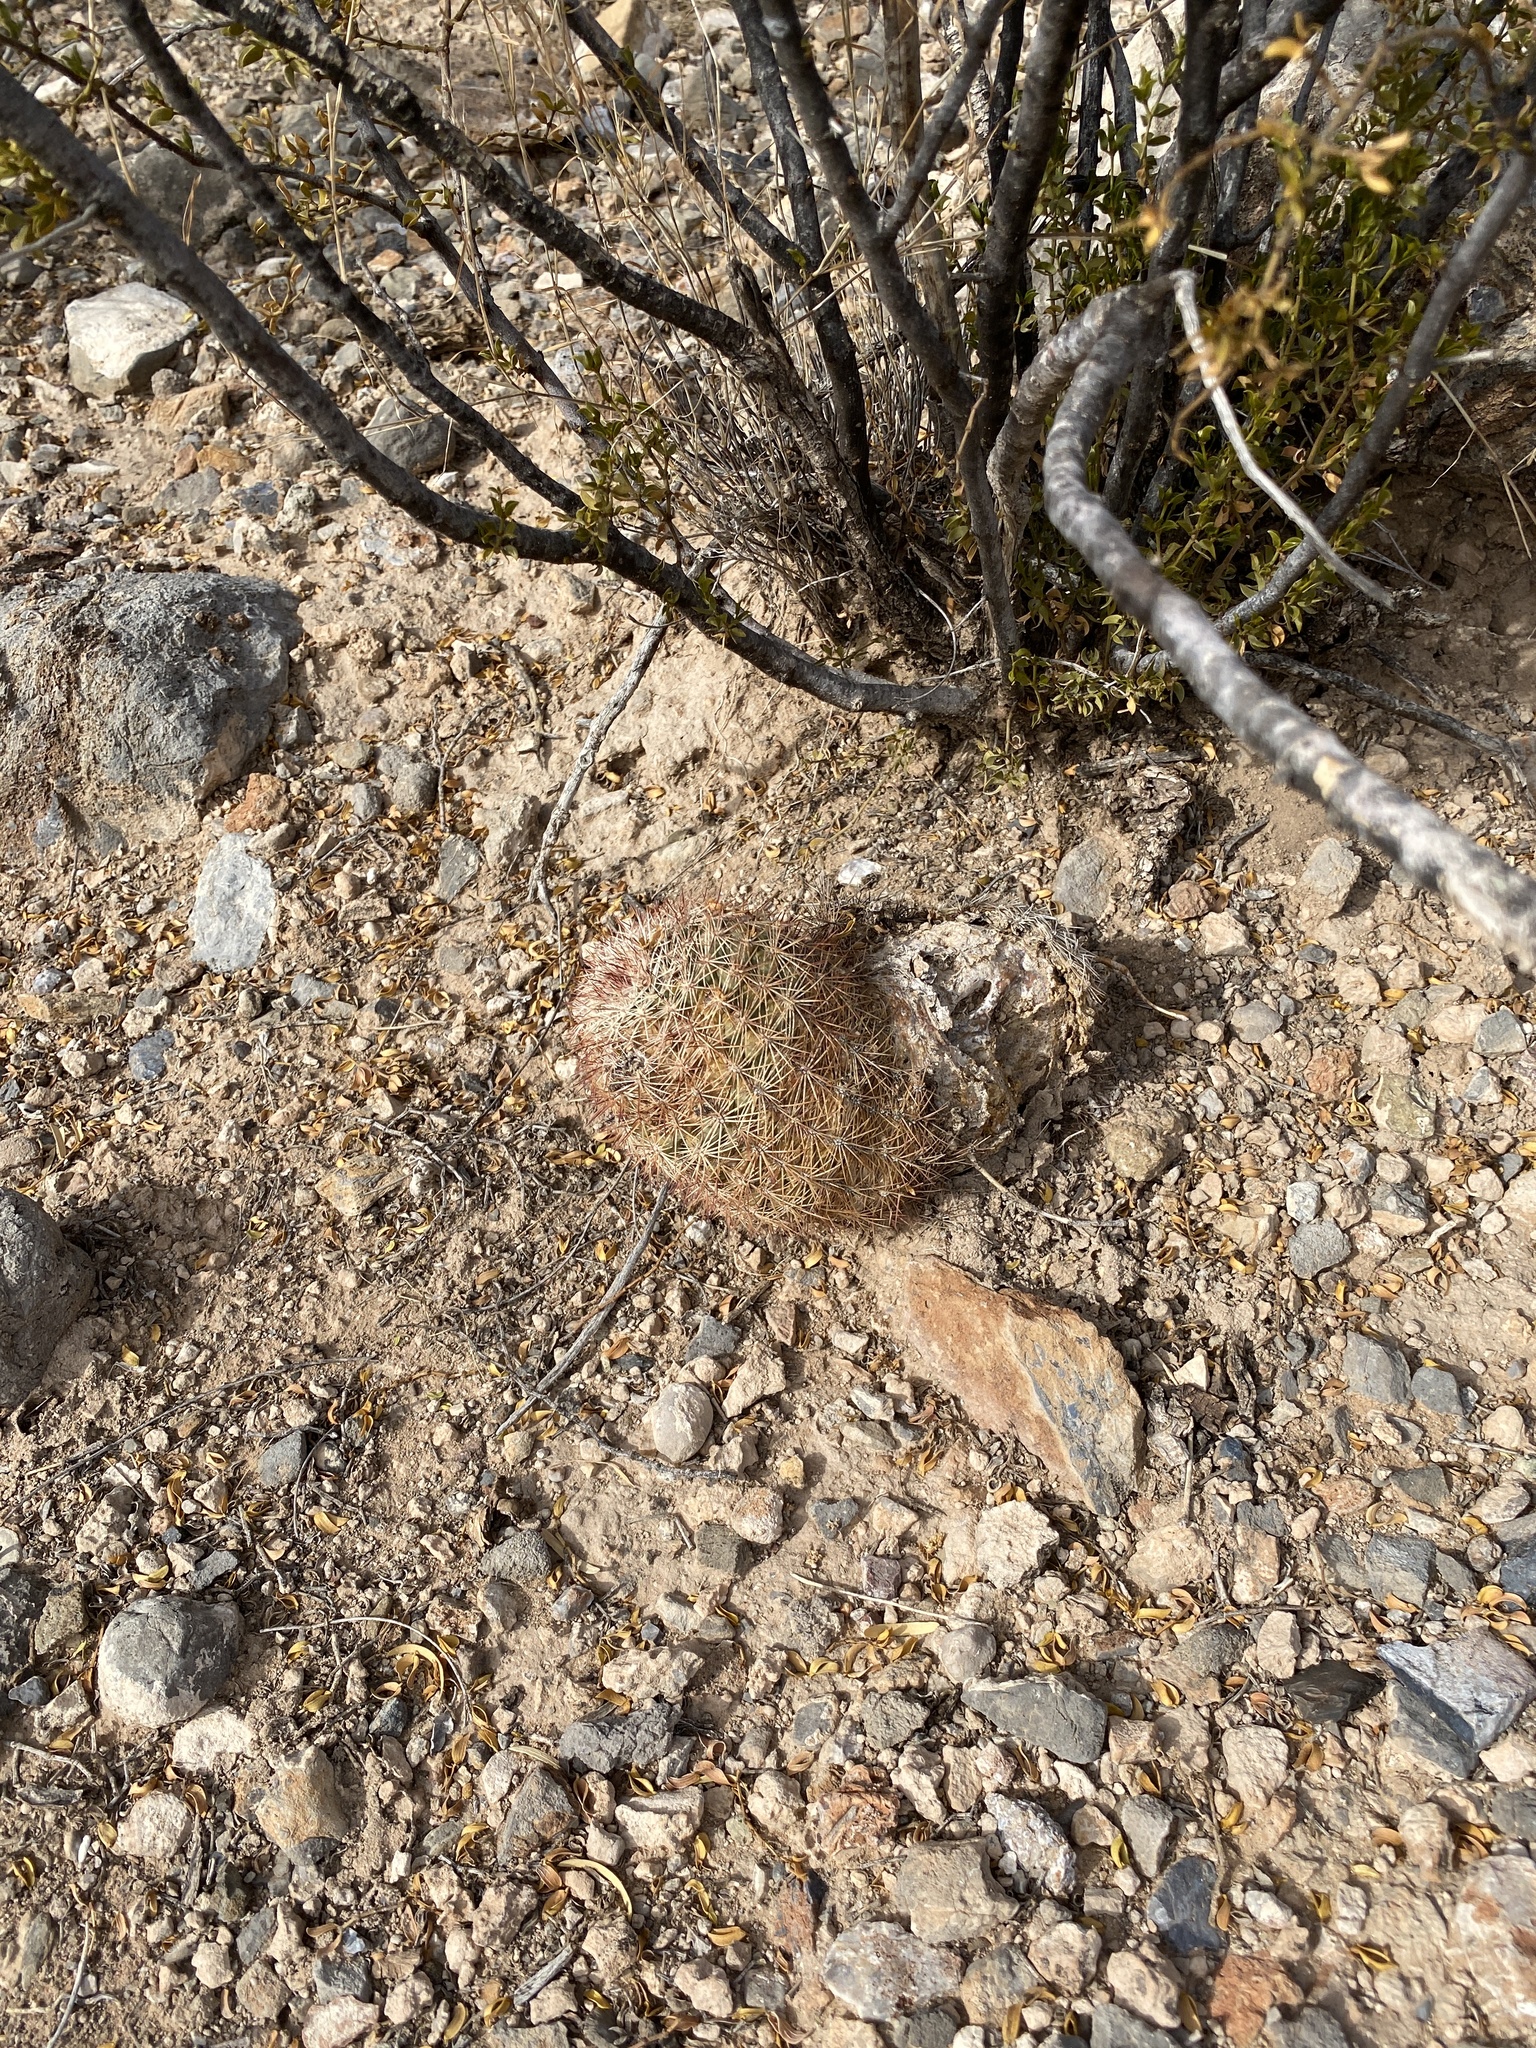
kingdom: Plantae
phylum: Tracheophyta
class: Magnoliopsida
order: Caryophyllales
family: Cactaceae
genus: Echinocereus
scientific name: Echinocereus dasyacanthus
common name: Spiny hedgehog cactus
